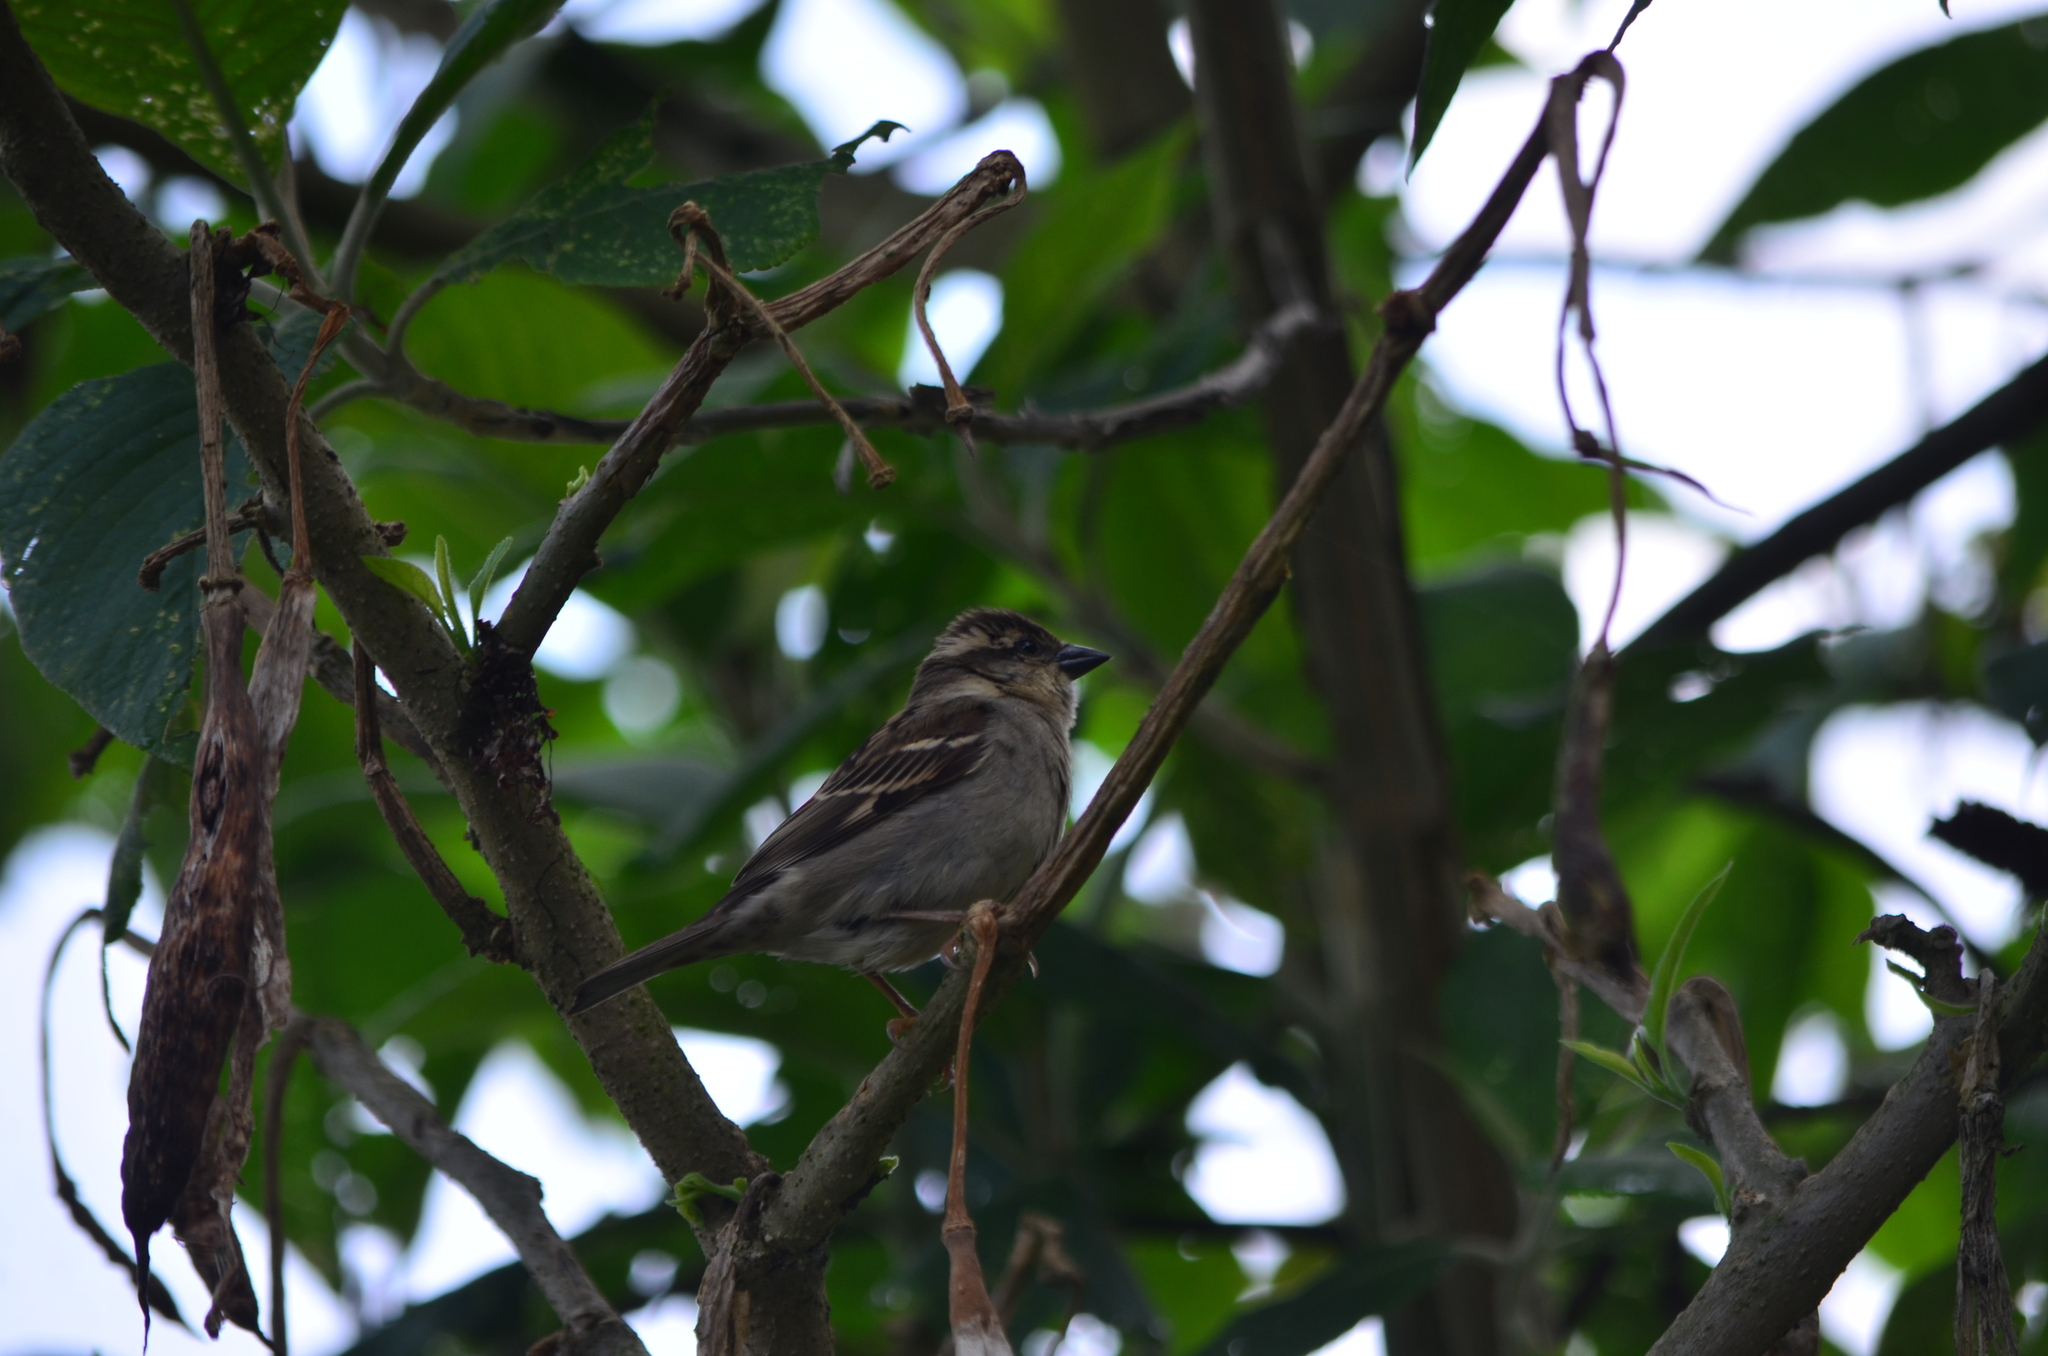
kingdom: Animalia
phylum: Chordata
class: Aves
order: Passeriformes
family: Passeridae
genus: Passer
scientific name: Passer cinnamomeus
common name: Russet sparrow
